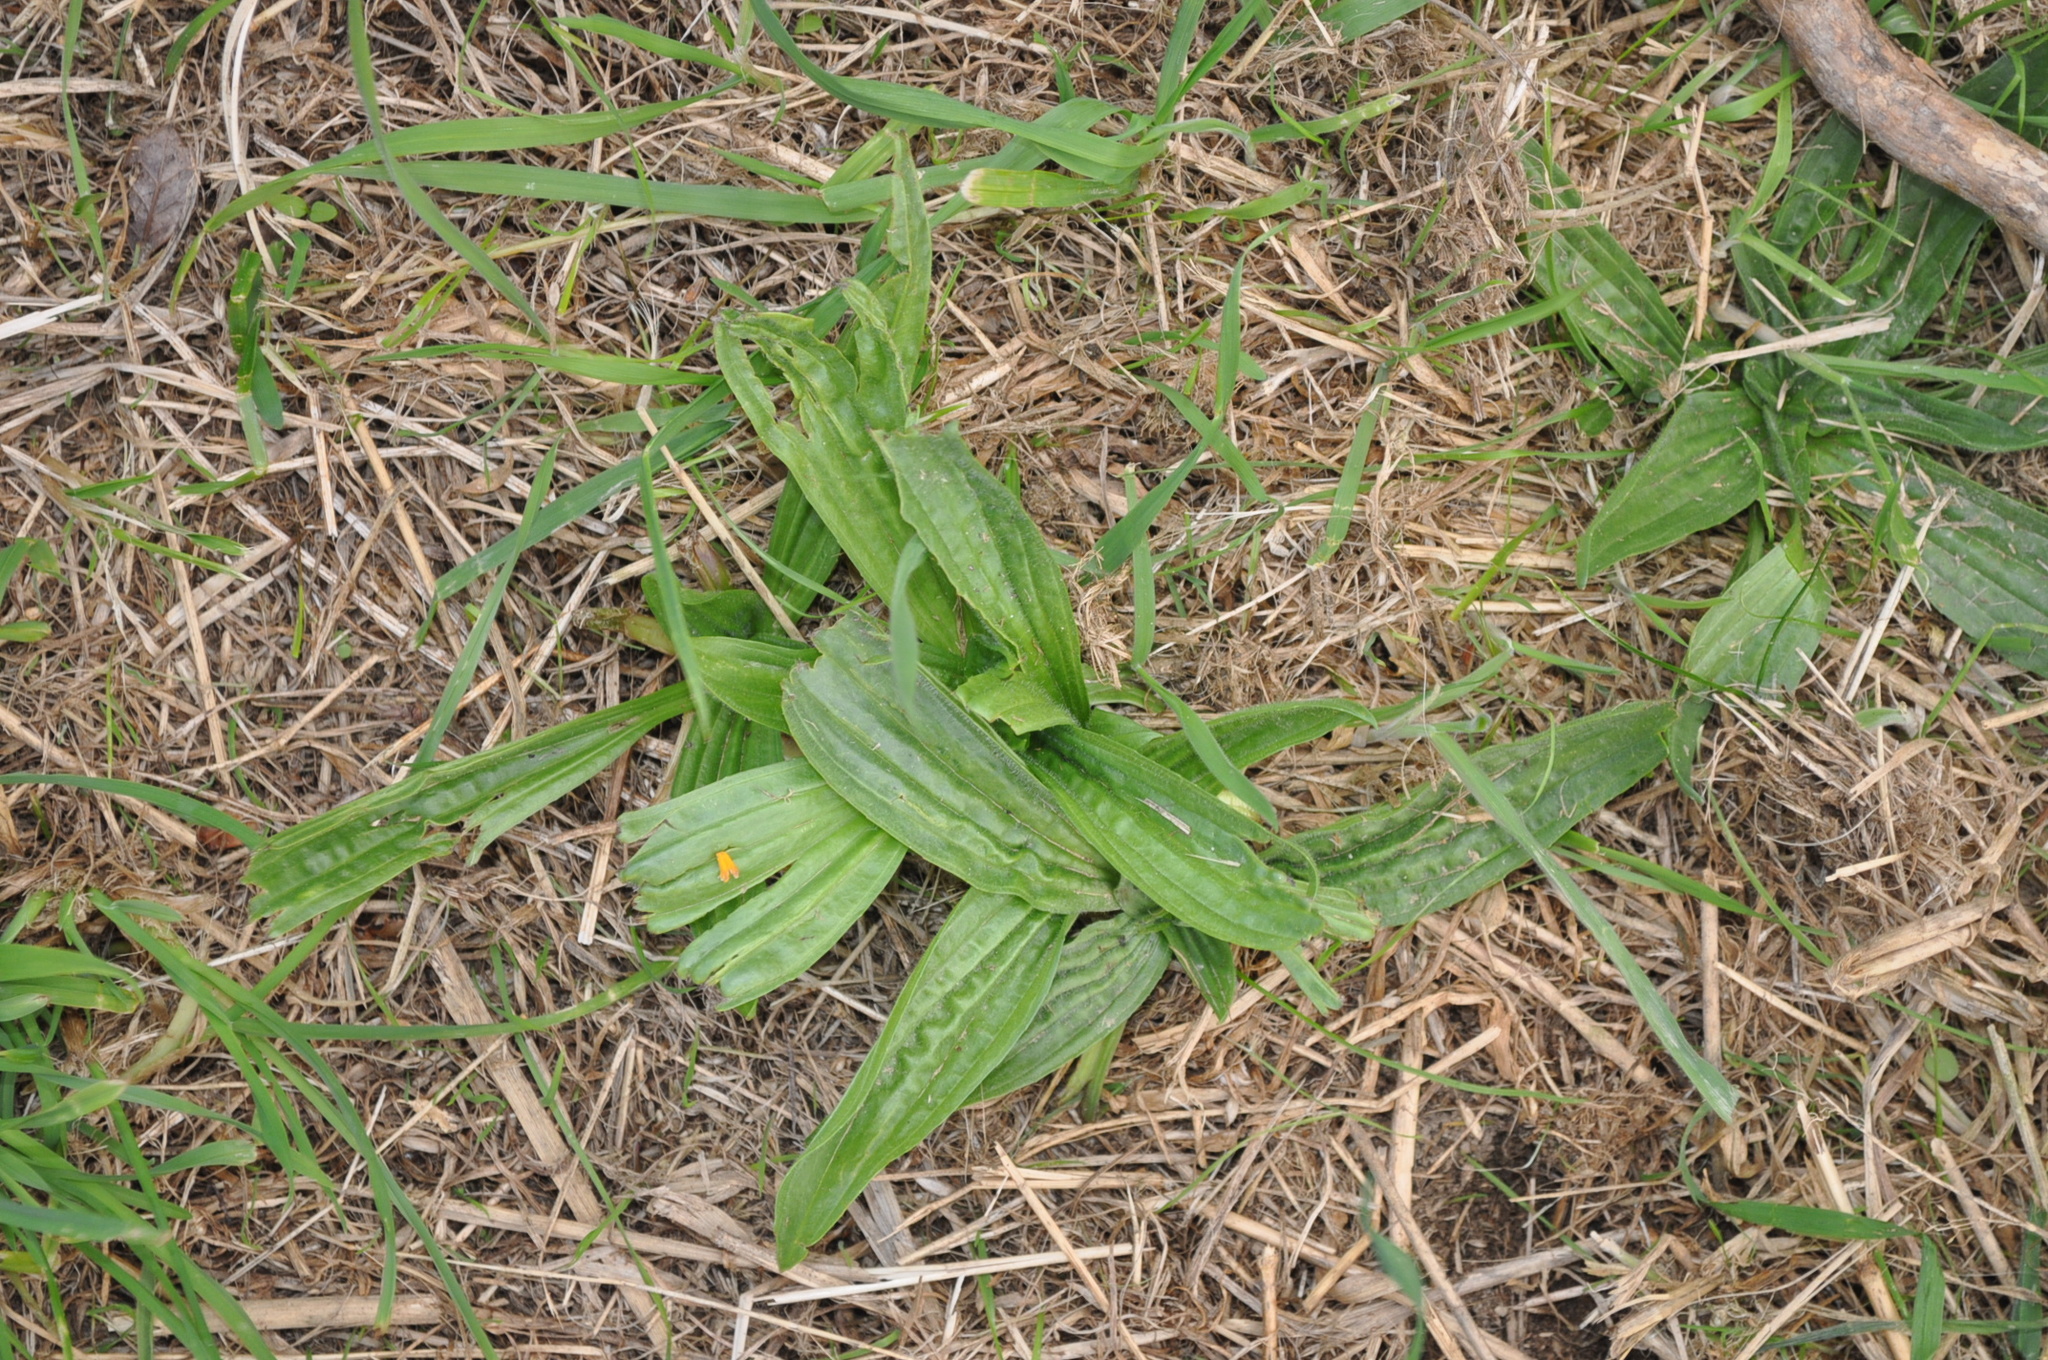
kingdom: Plantae
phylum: Tracheophyta
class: Magnoliopsida
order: Lamiales
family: Plantaginaceae
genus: Plantago
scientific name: Plantago lanceolata
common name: Ribwort plantain
